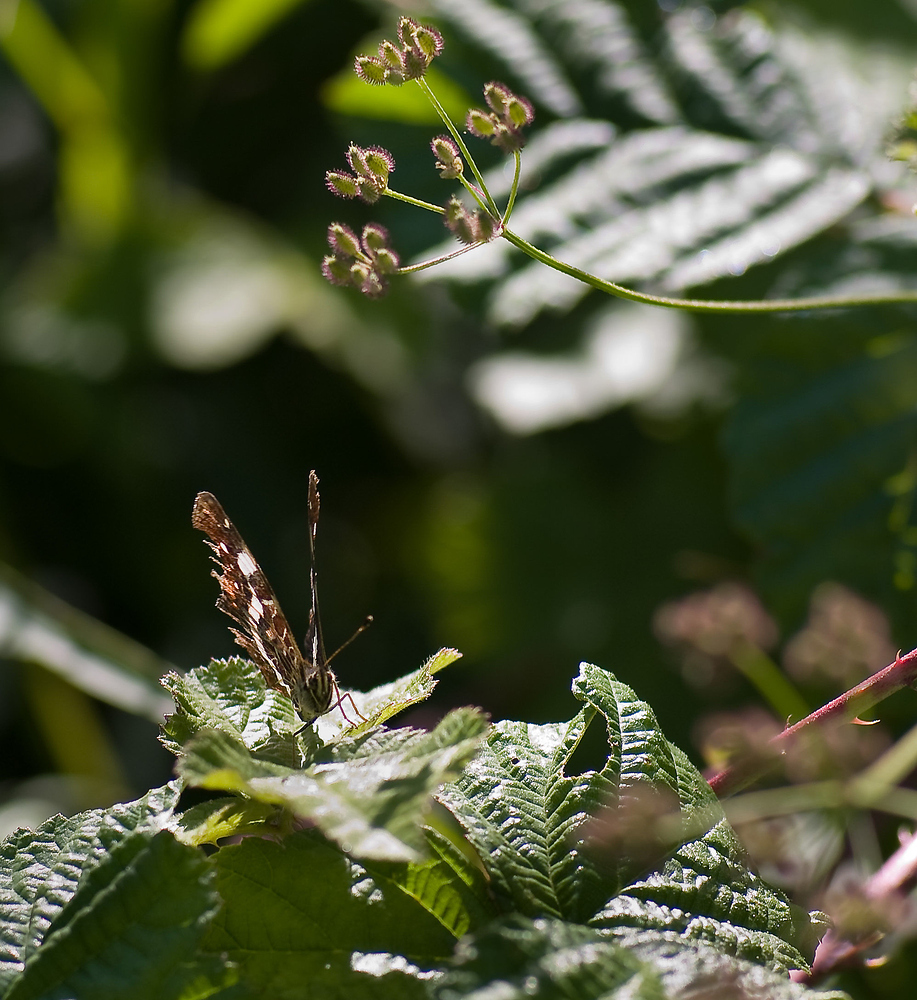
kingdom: Animalia
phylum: Arthropoda
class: Insecta
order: Lepidoptera
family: Nymphalidae
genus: Araschnia
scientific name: Araschnia levana
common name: Map butterfly
